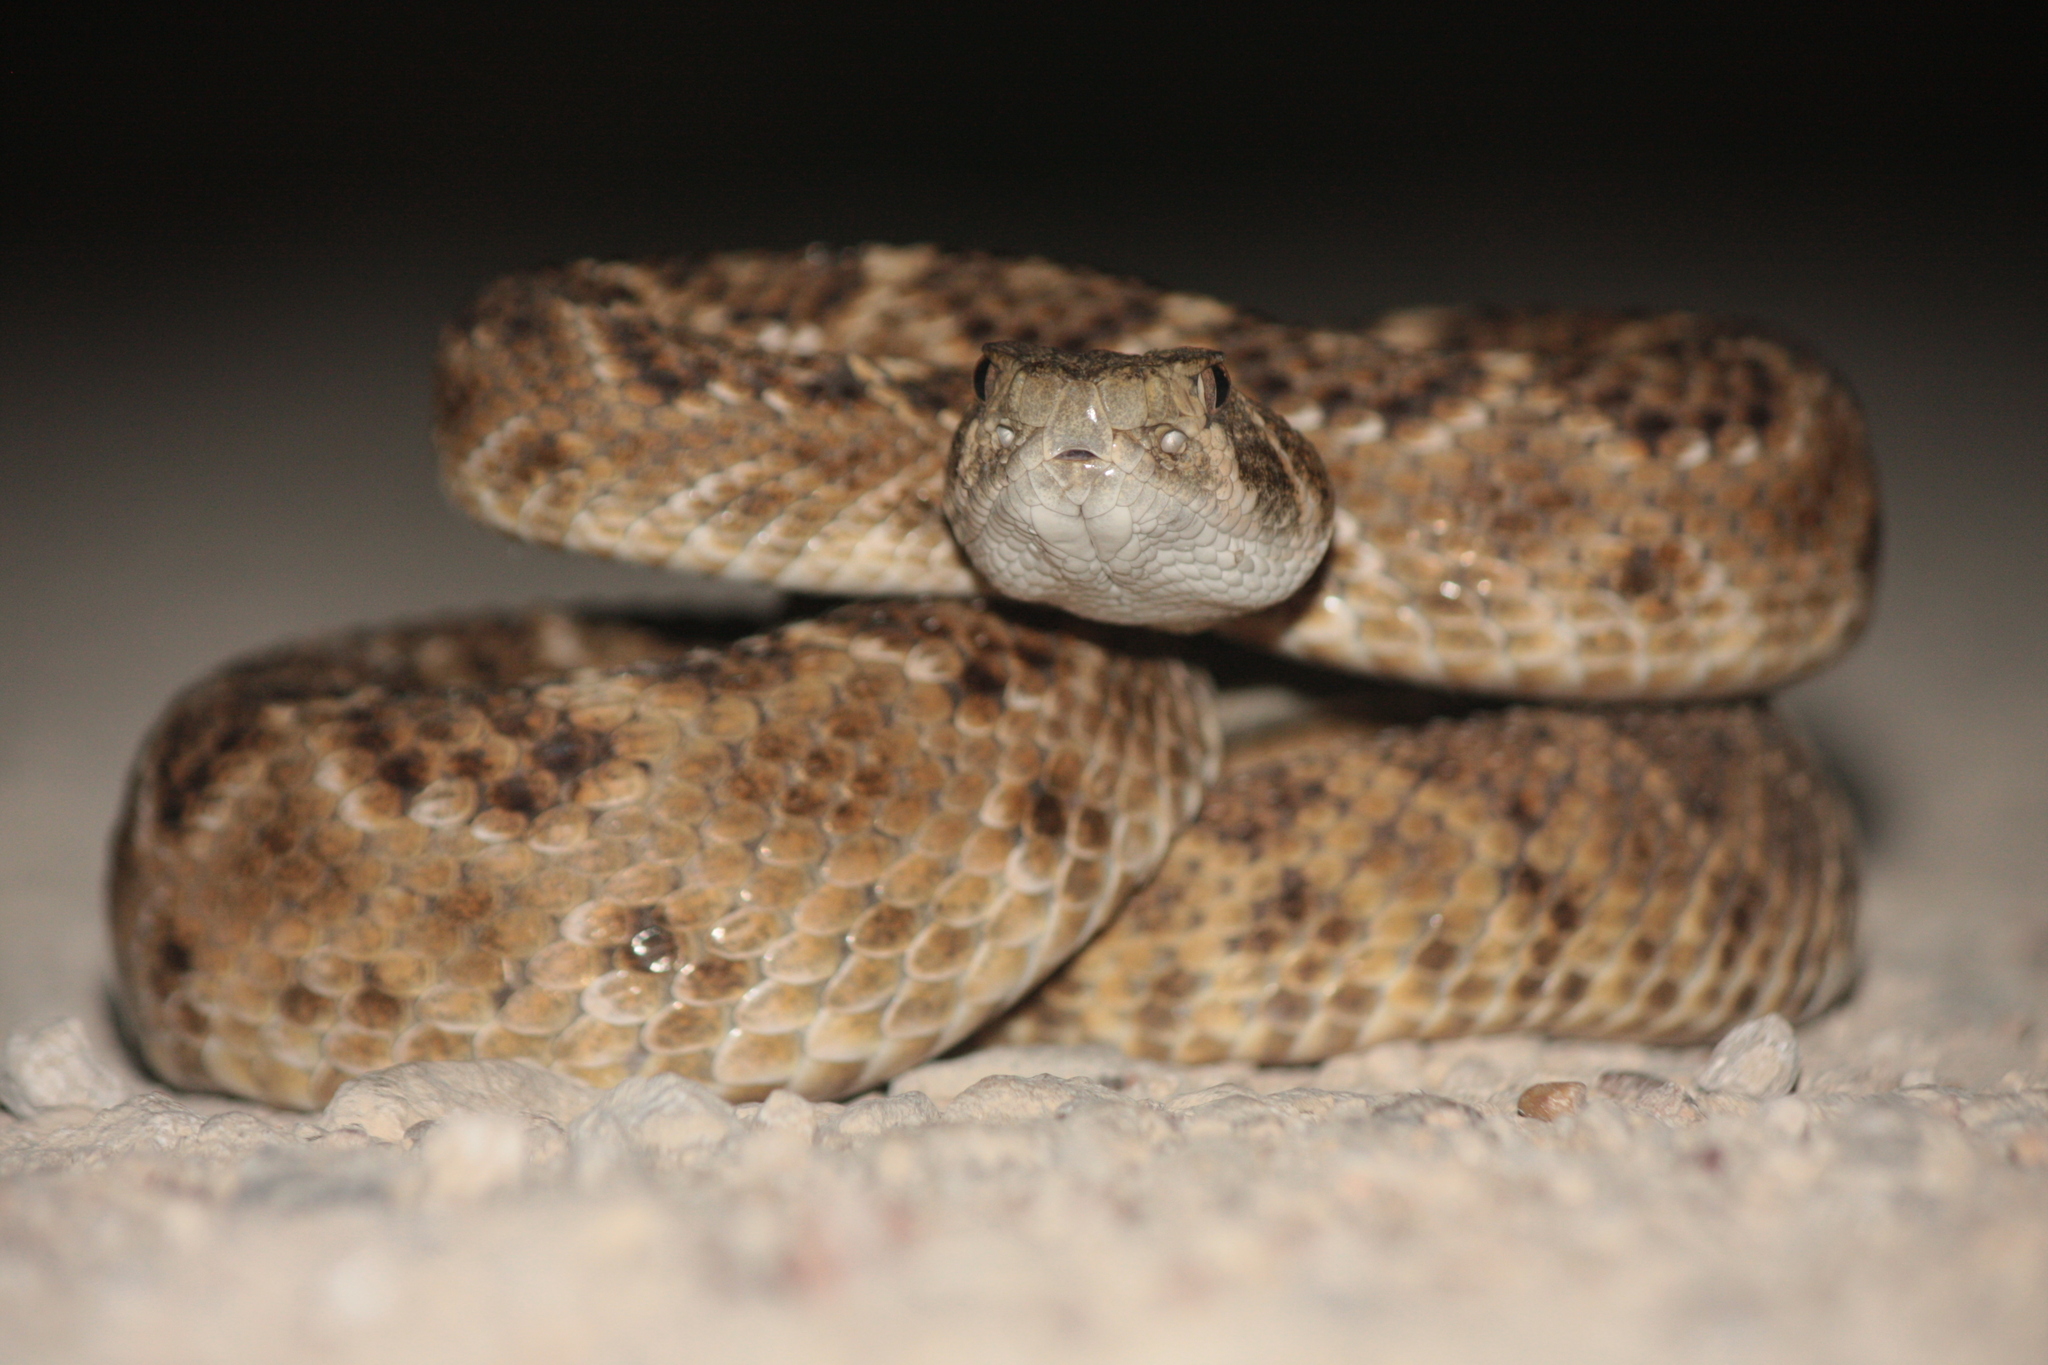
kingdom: Animalia
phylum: Chordata
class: Squamata
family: Viperidae
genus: Crotalus
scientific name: Crotalus atrox
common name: Western diamond-backed rattlesnake
